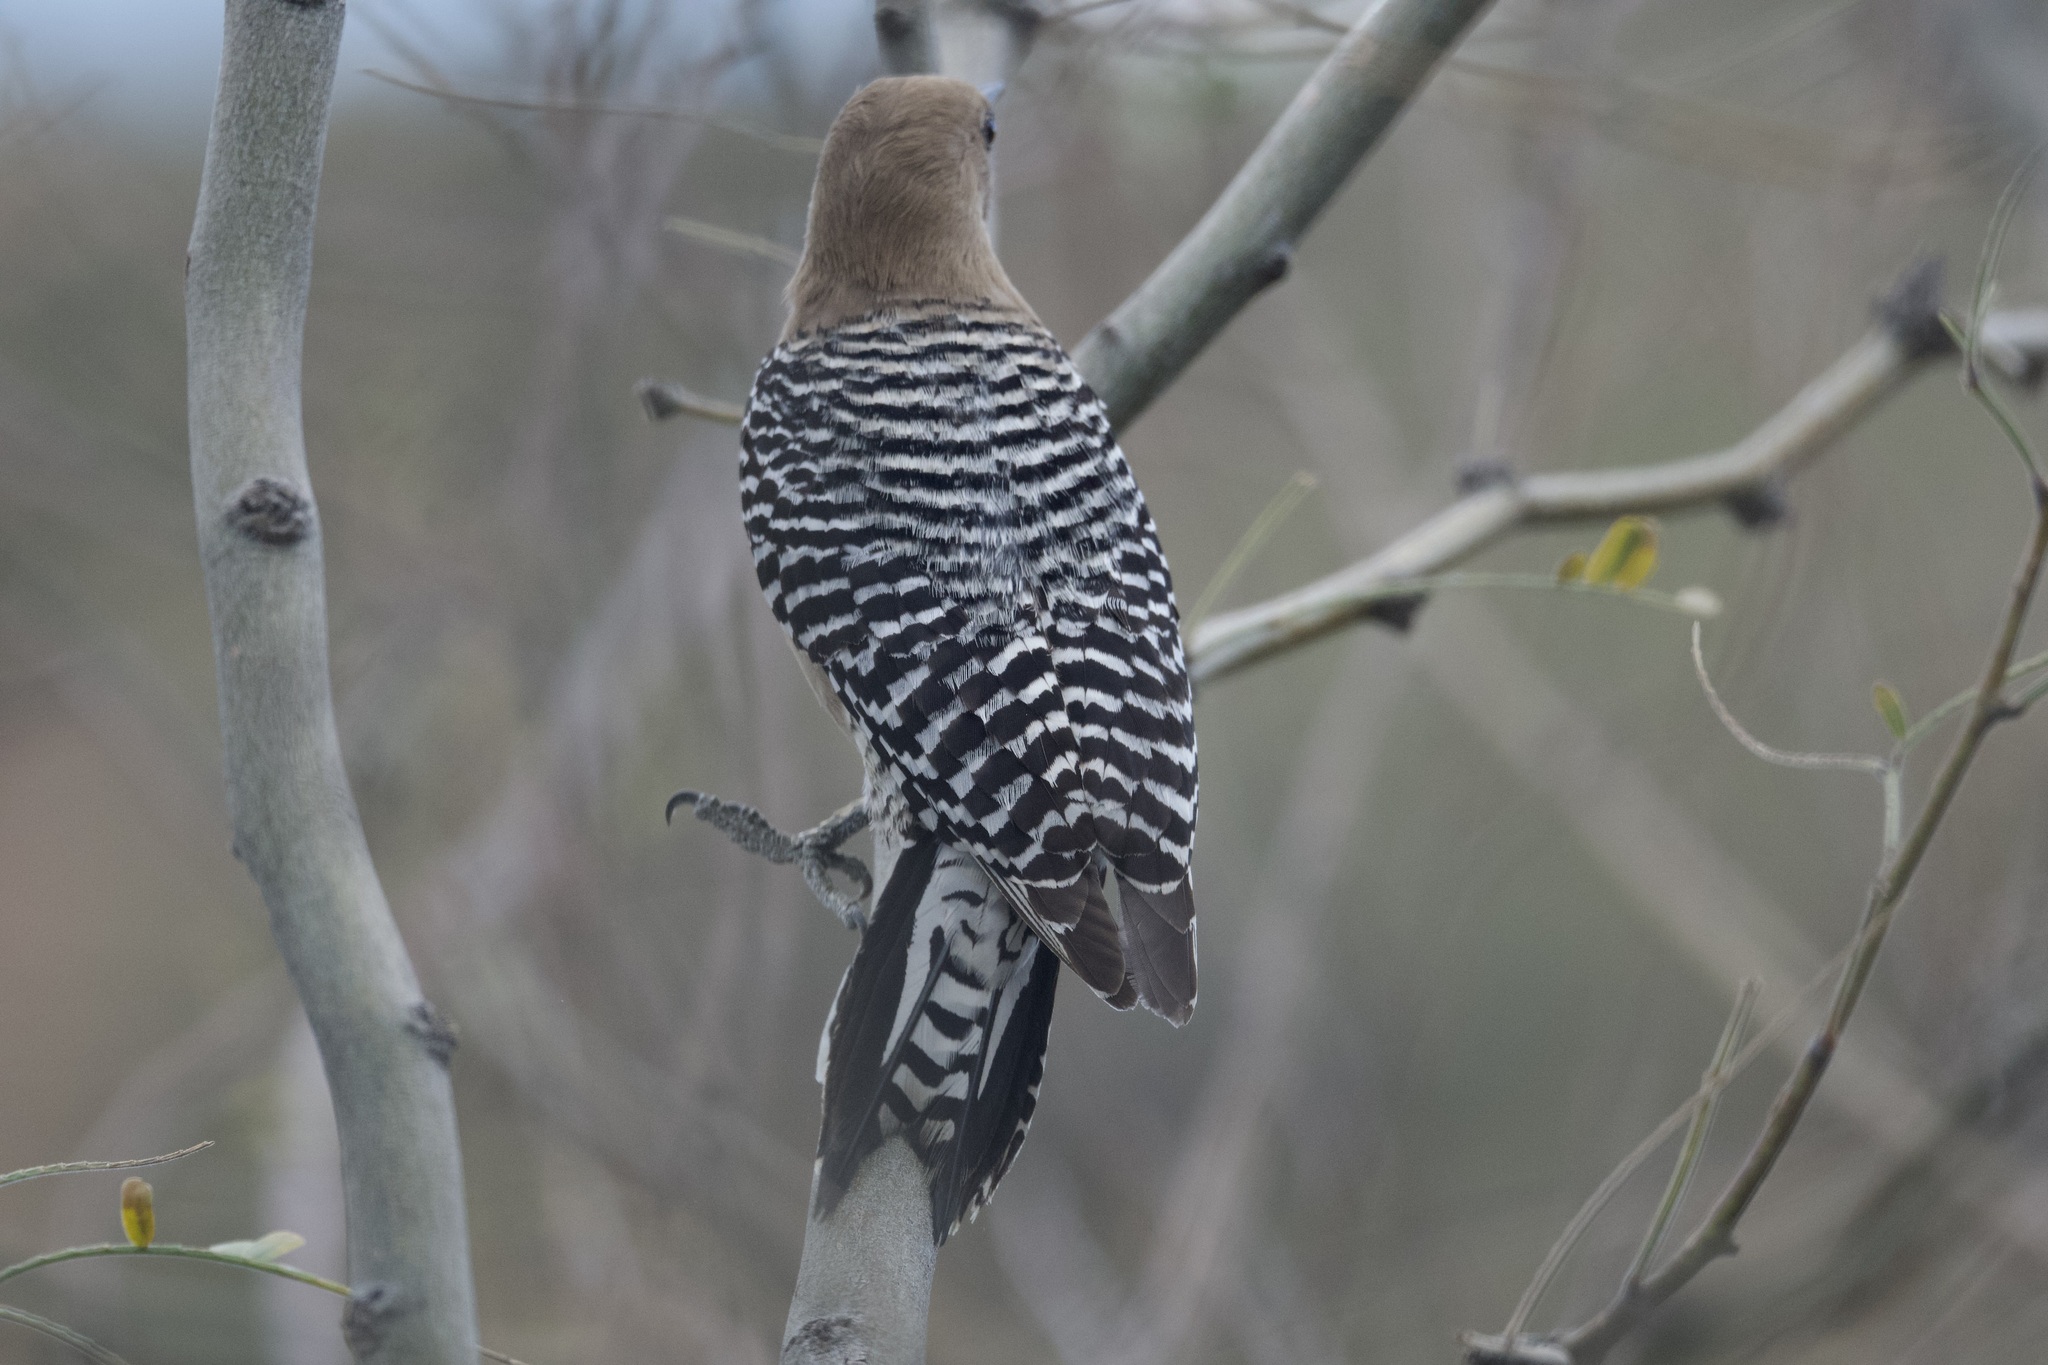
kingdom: Animalia
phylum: Chordata
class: Aves
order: Piciformes
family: Picidae
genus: Melanerpes
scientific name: Melanerpes uropygialis
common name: Gila woodpecker
